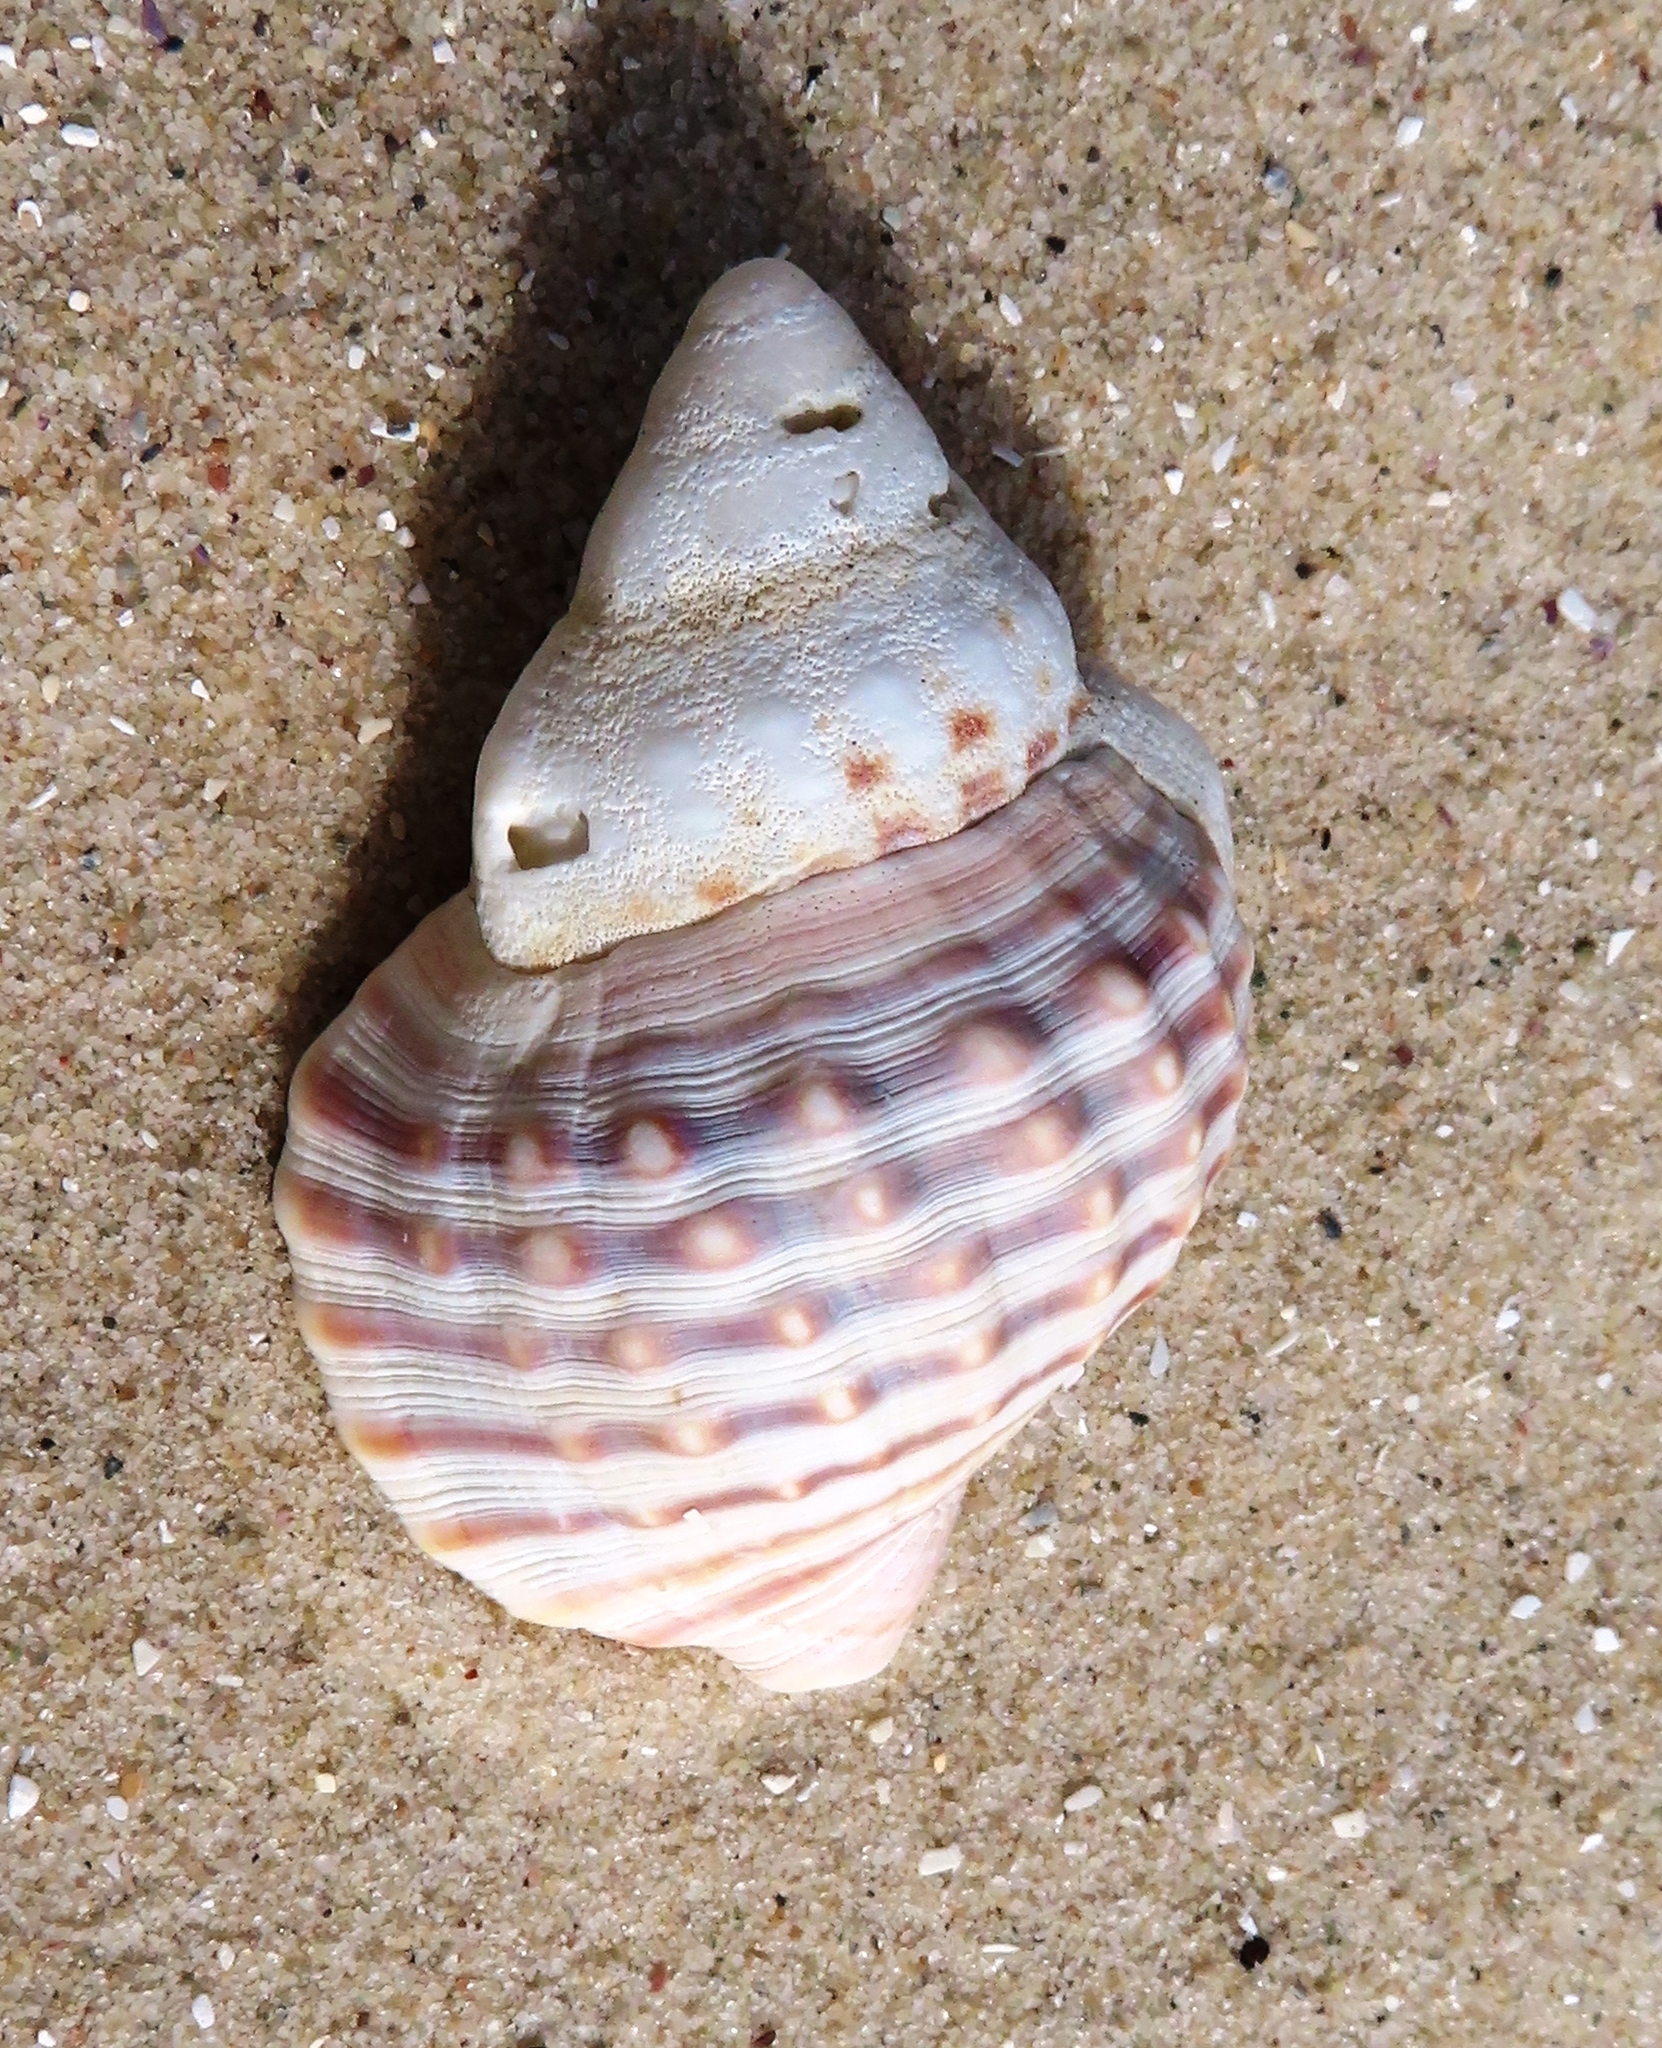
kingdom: Animalia
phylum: Mollusca
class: Gastropoda
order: Littorinimorpha
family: Cymatiidae
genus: Argobuccinum
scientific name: Argobuccinum pustulosum
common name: Pustular triton
